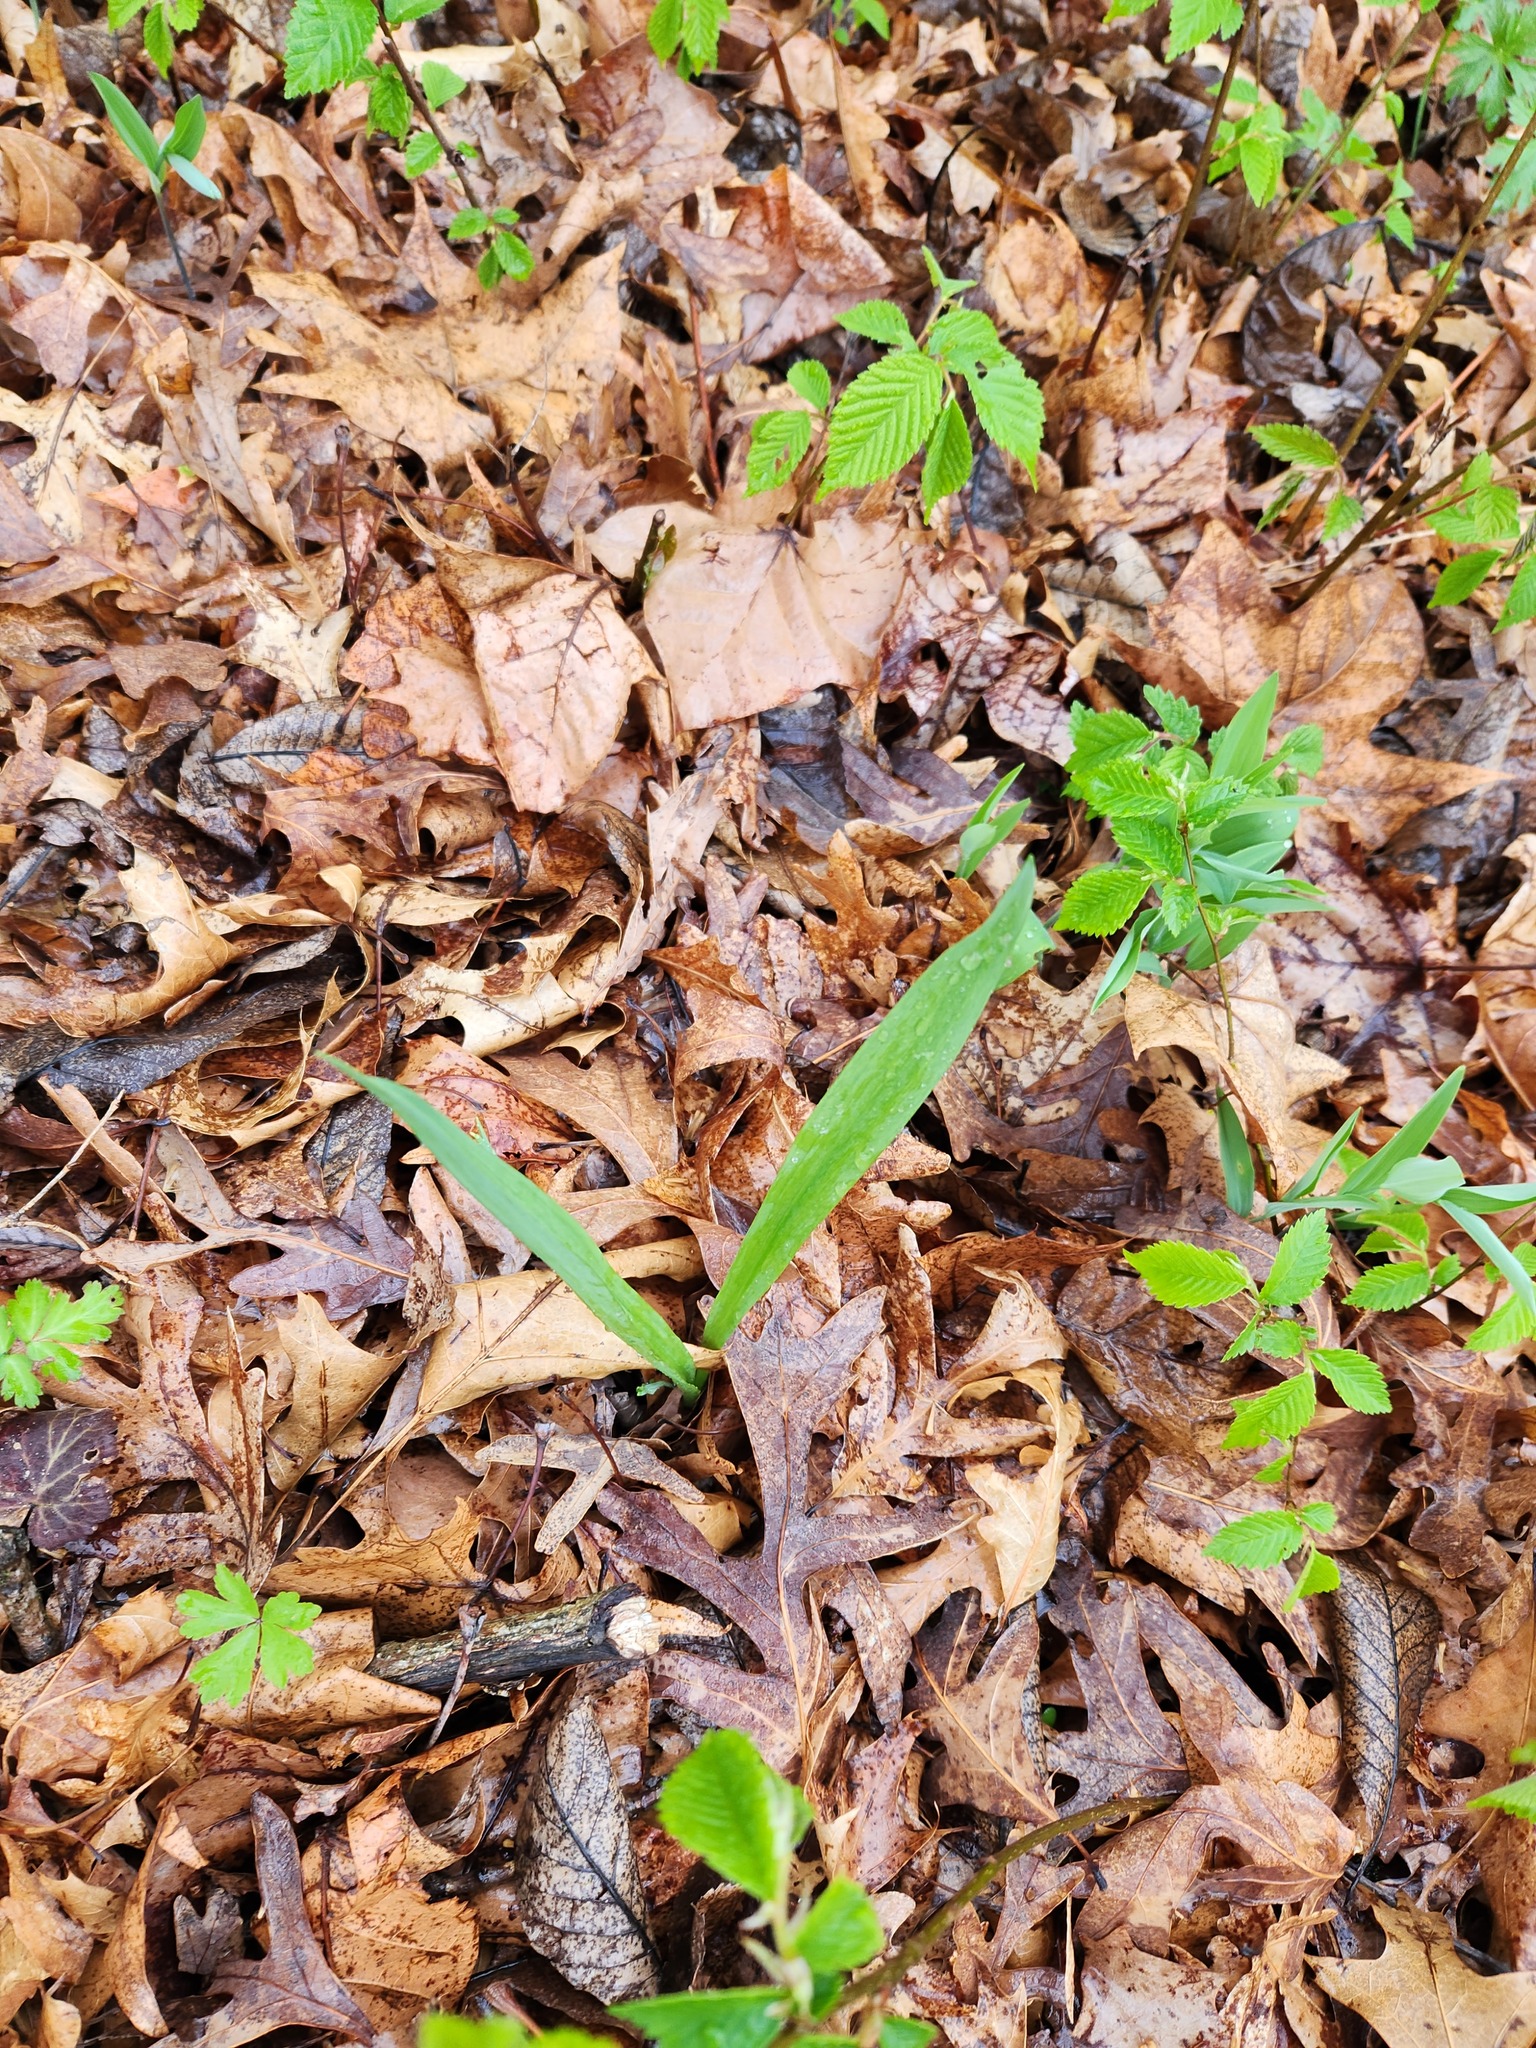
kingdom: Plantae
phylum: Tracheophyta
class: Liliopsida
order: Asparagales
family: Amaryllidaceae
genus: Allium
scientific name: Allium tricoccum
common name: Ramp
